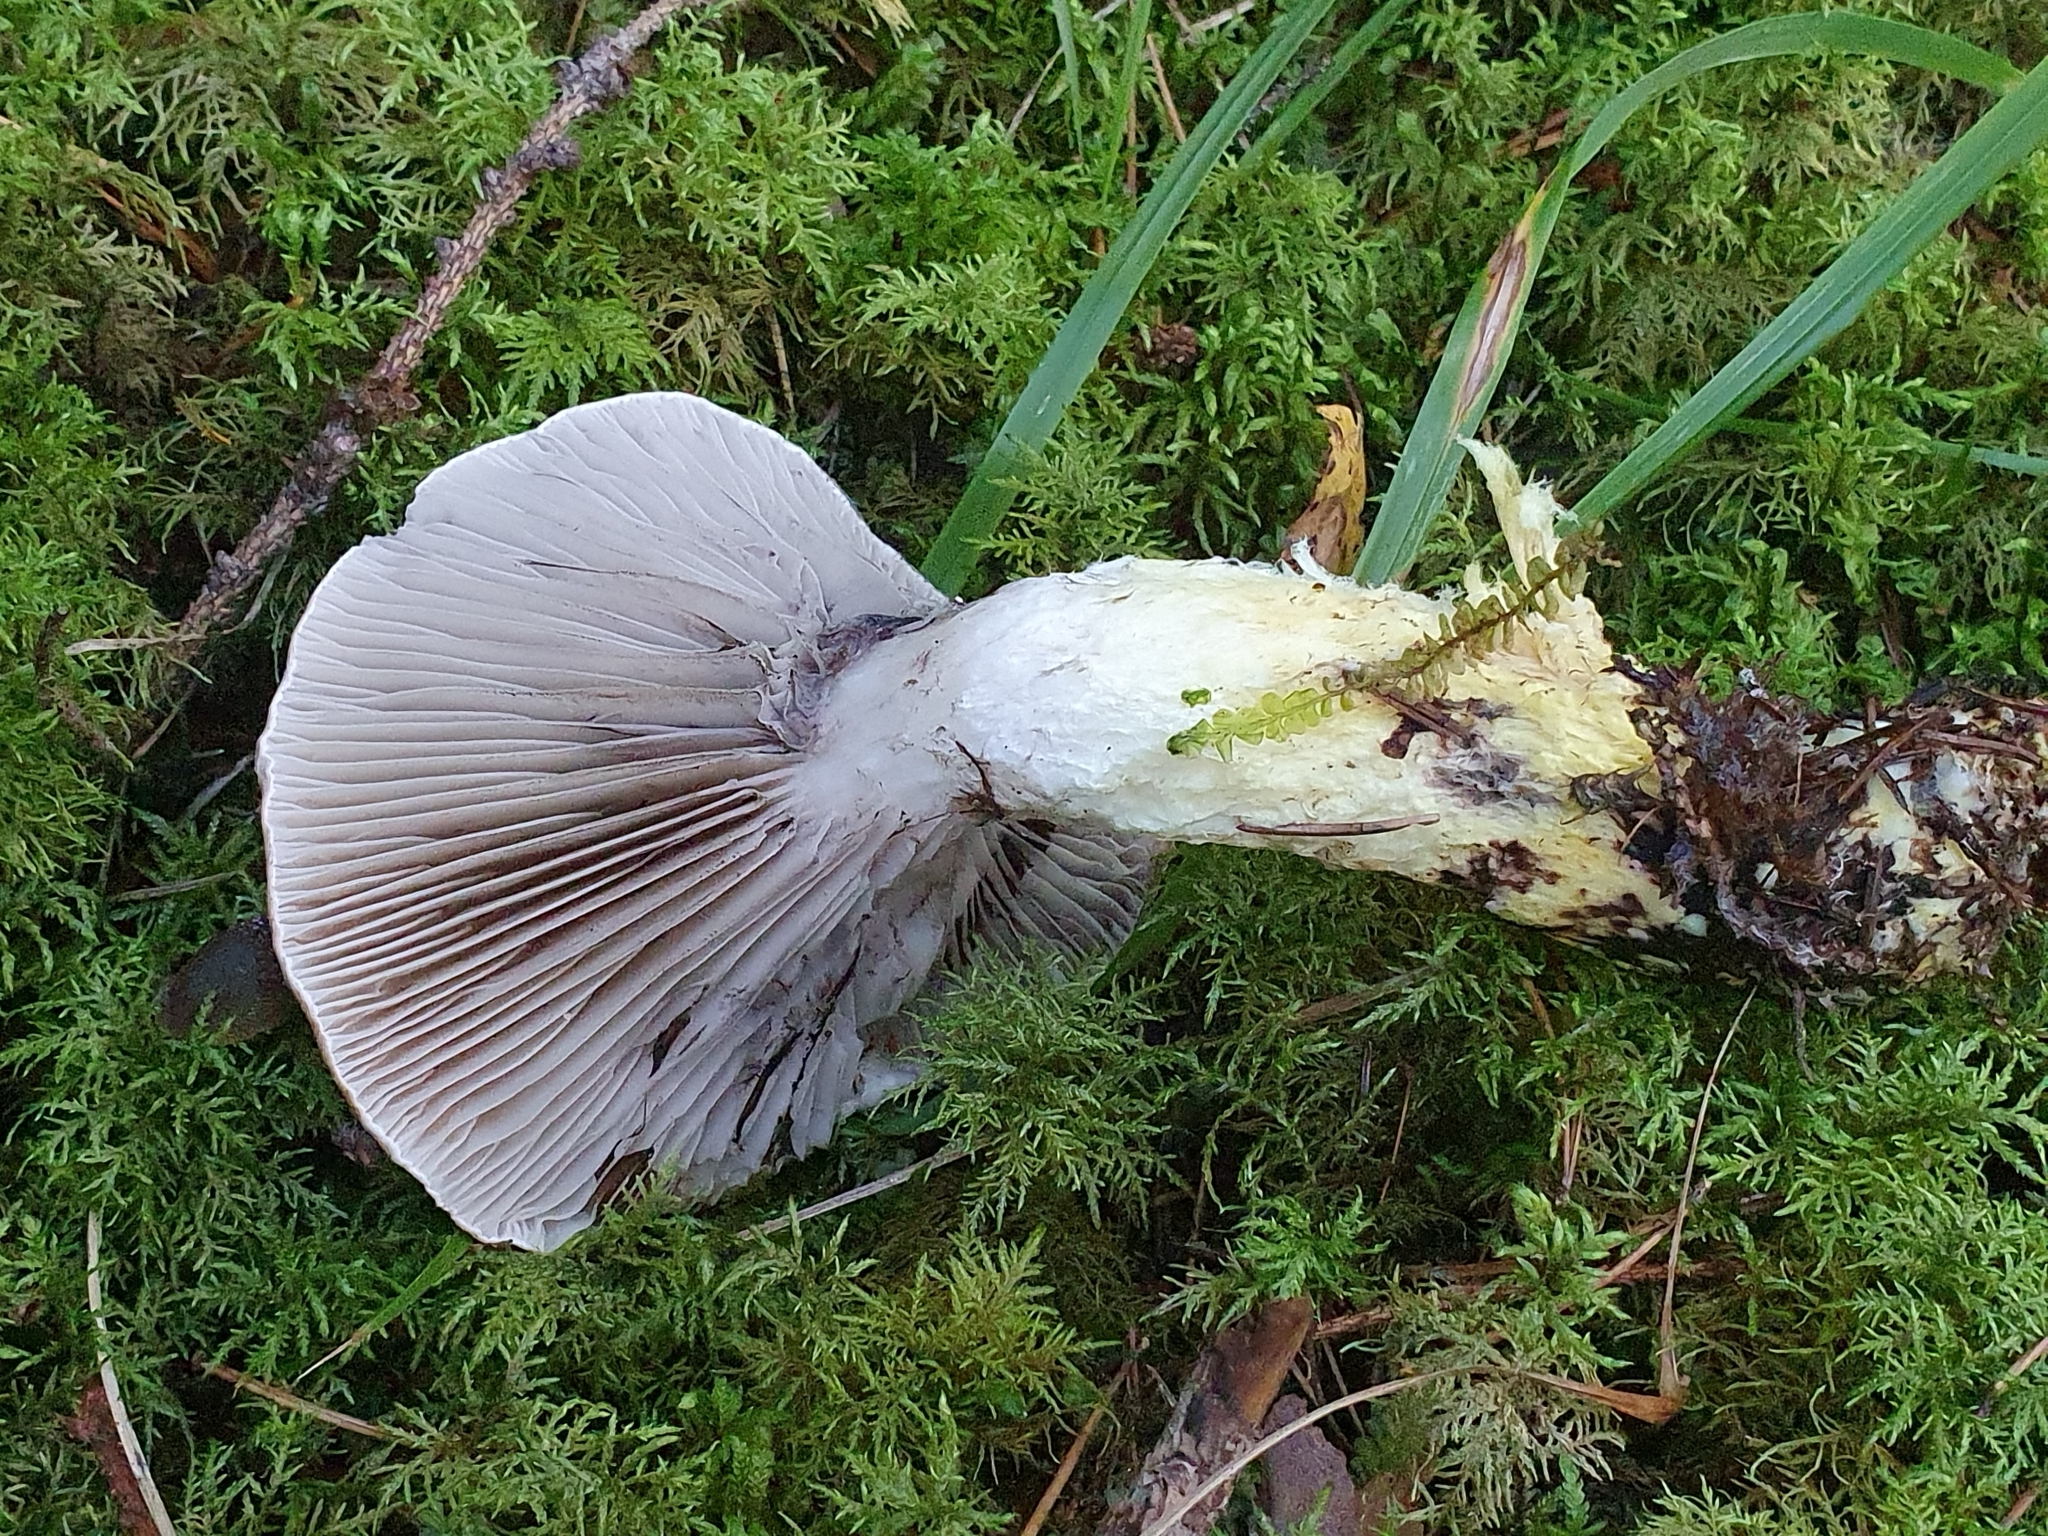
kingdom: Fungi
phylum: Basidiomycota
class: Agaricomycetes
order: Boletales
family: Gomphidiaceae
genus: Gomphidius
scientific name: Gomphidius glutinosus
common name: Slimy spike
